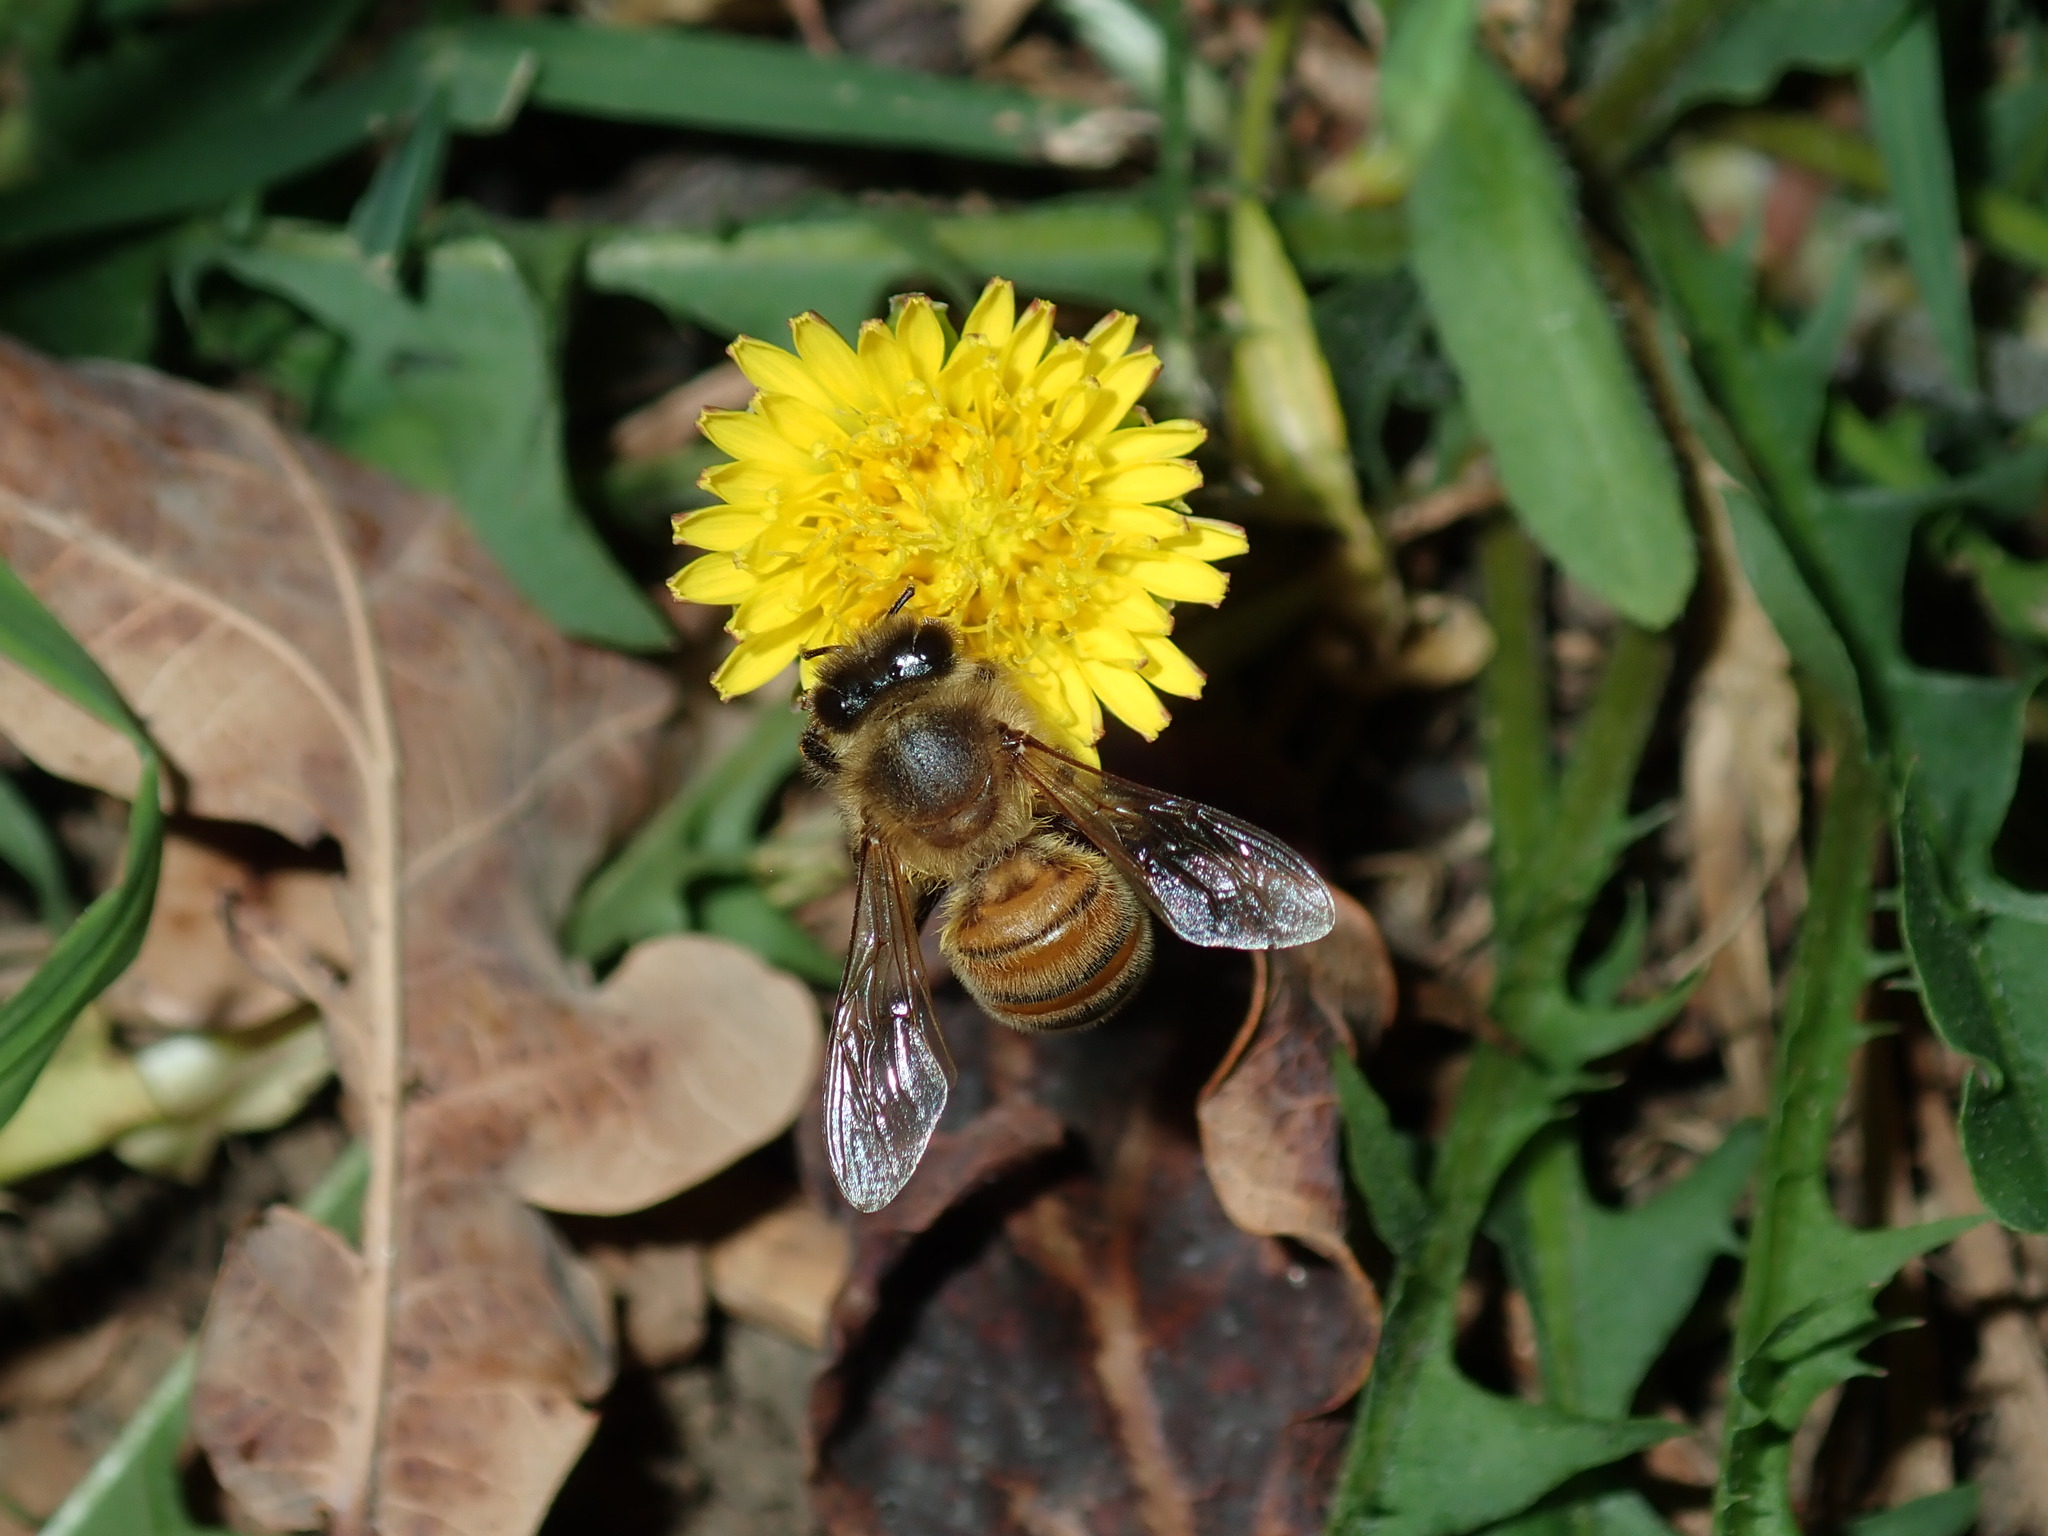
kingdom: Animalia
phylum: Arthropoda
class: Insecta
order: Hymenoptera
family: Apidae
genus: Apis
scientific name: Apis mellifera
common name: Honey bee
